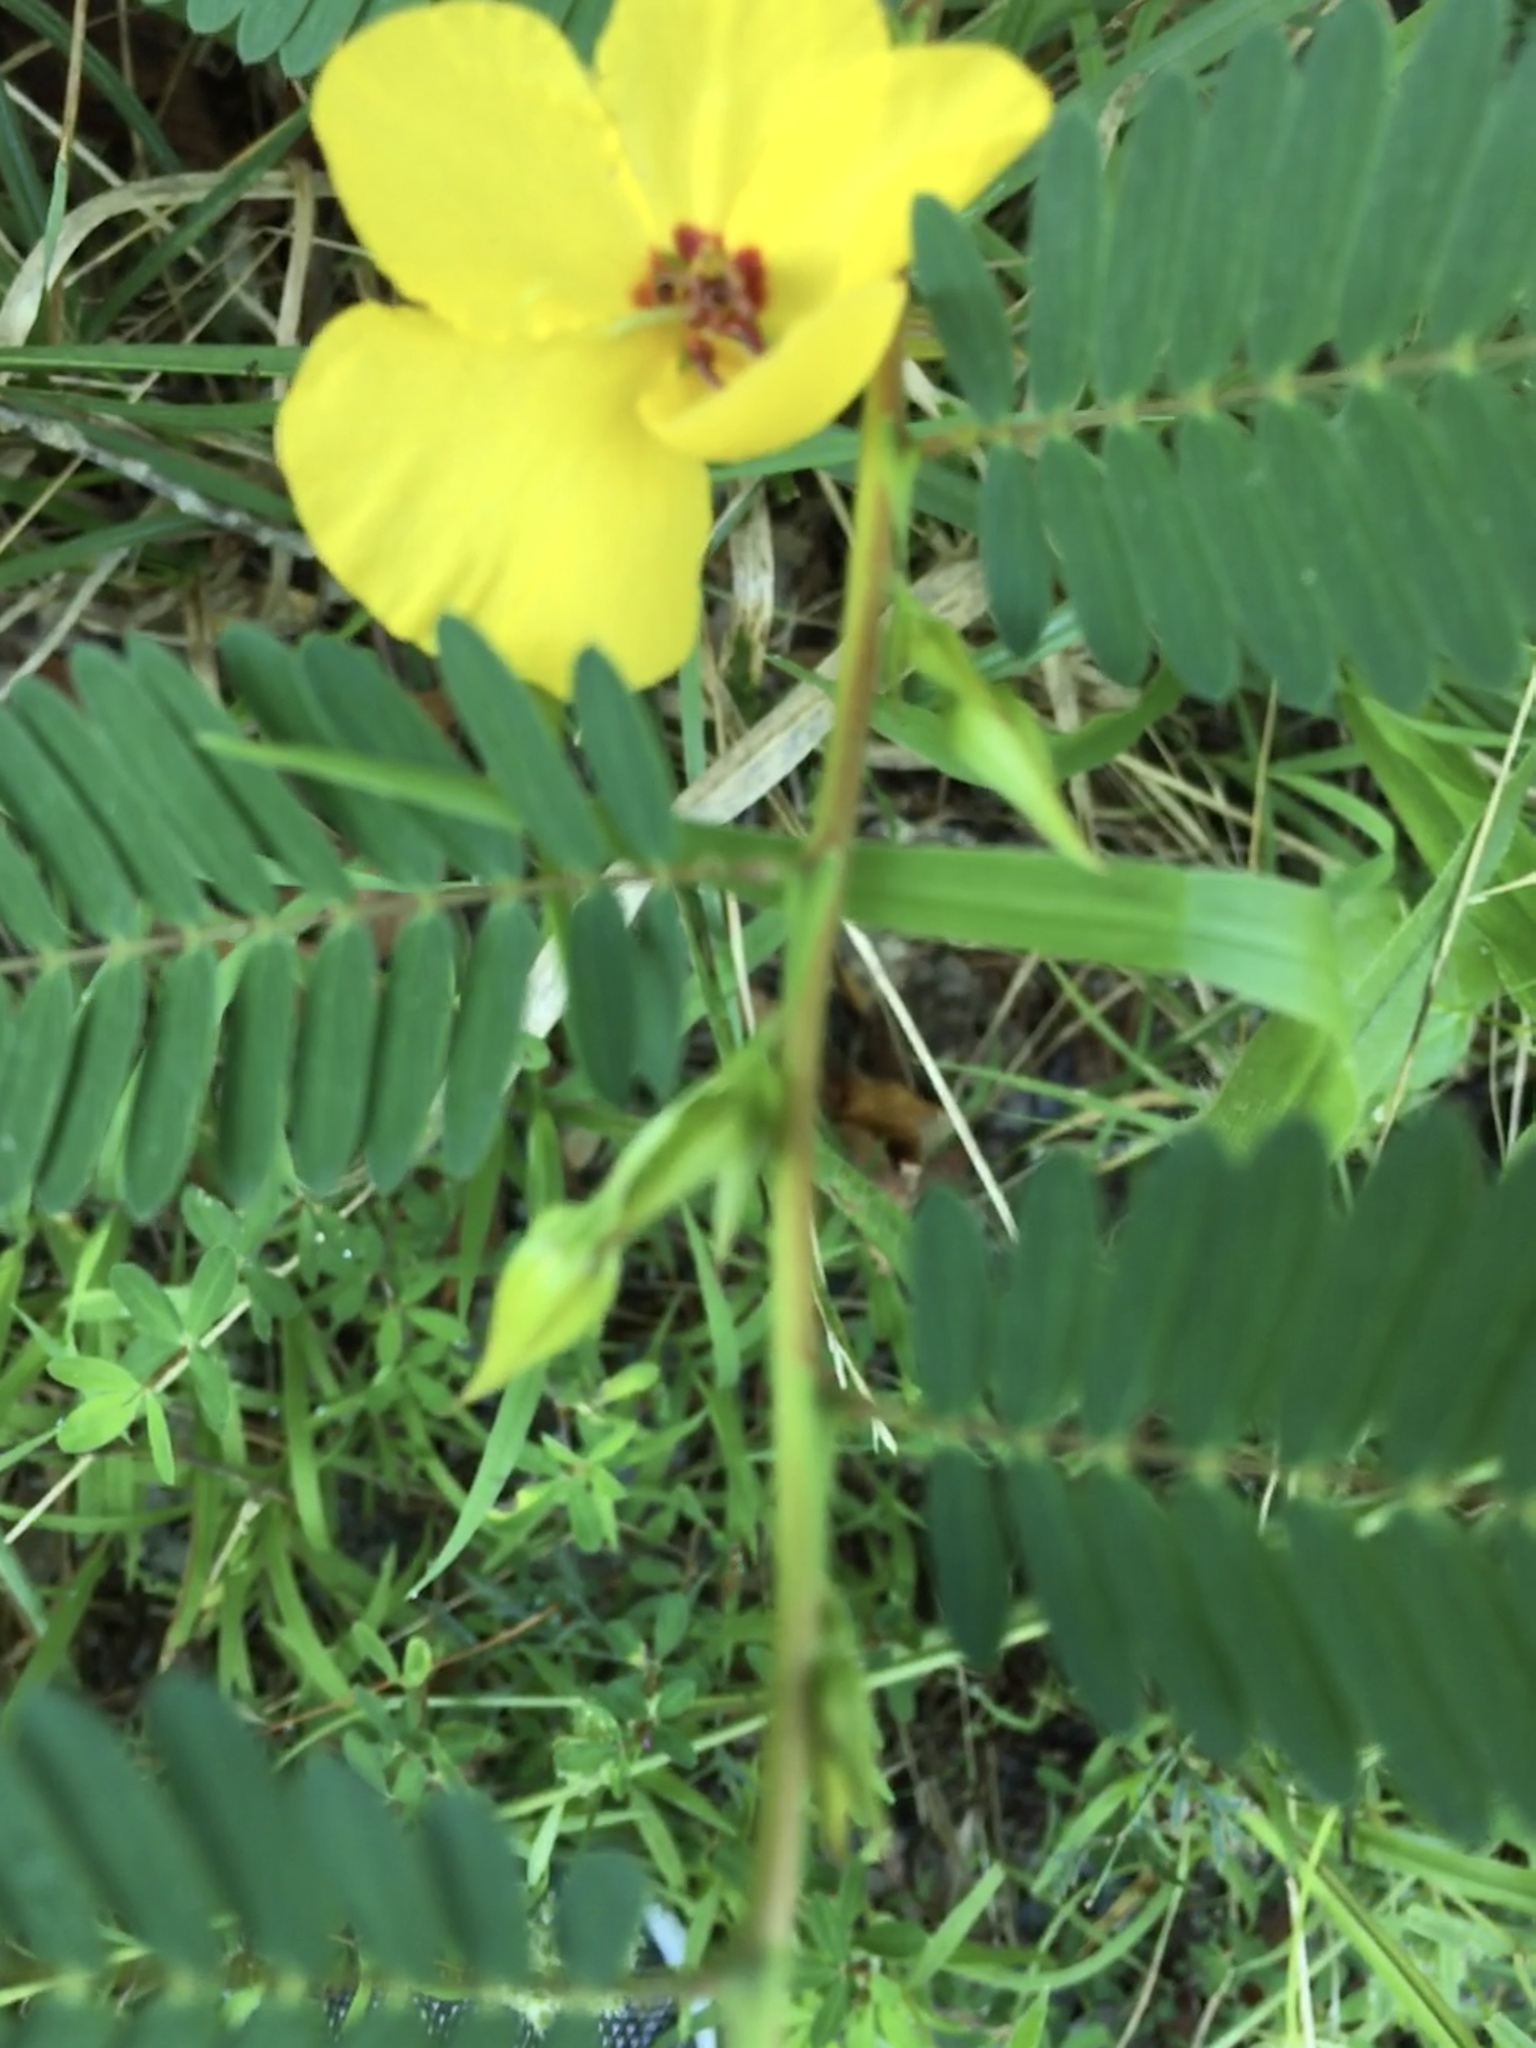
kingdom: Plantae
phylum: Tracheophyta
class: Magnoliopsida
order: Fabales
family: Fabaceae
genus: Chamaecrista
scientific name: Chamaecrista fasciculata
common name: Golden cassia
